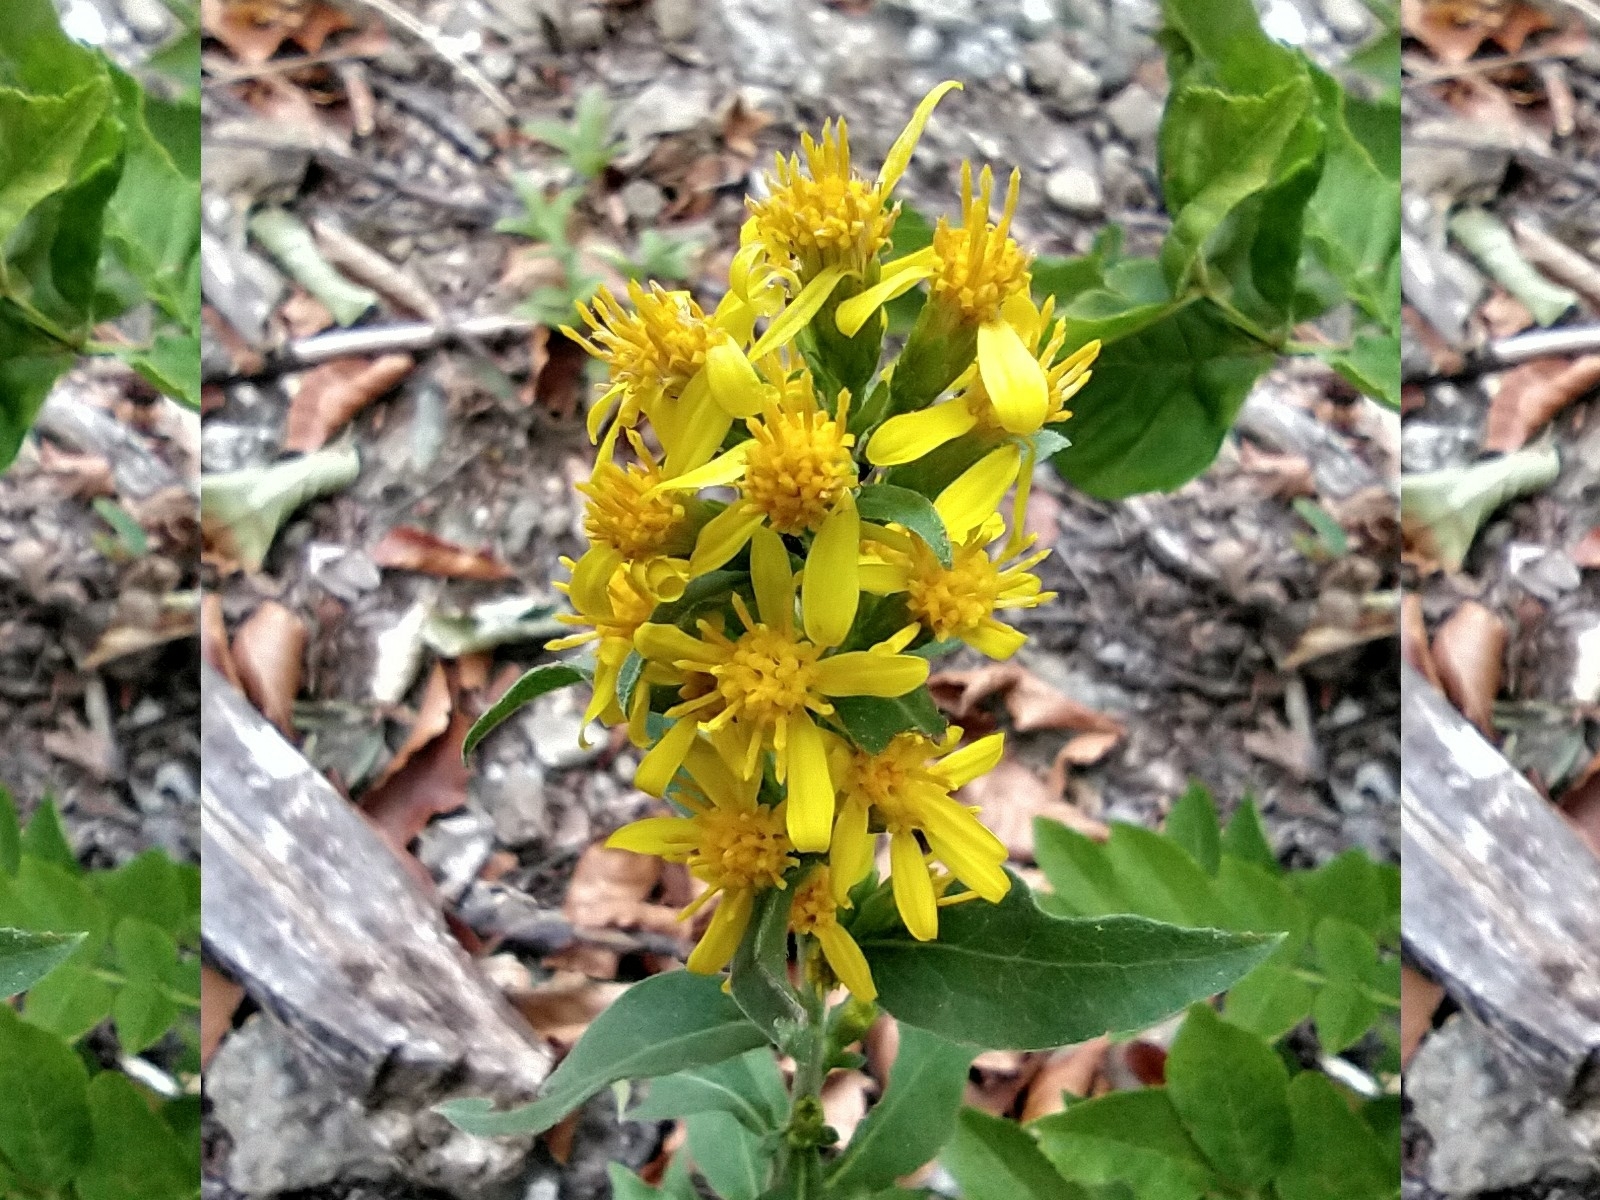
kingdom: Plantae
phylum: Tracheophyta
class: Magnoliopsida
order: Asterales
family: Asteraceae
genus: Solidago
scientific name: Solidago virgaurea
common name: Goldenrod
